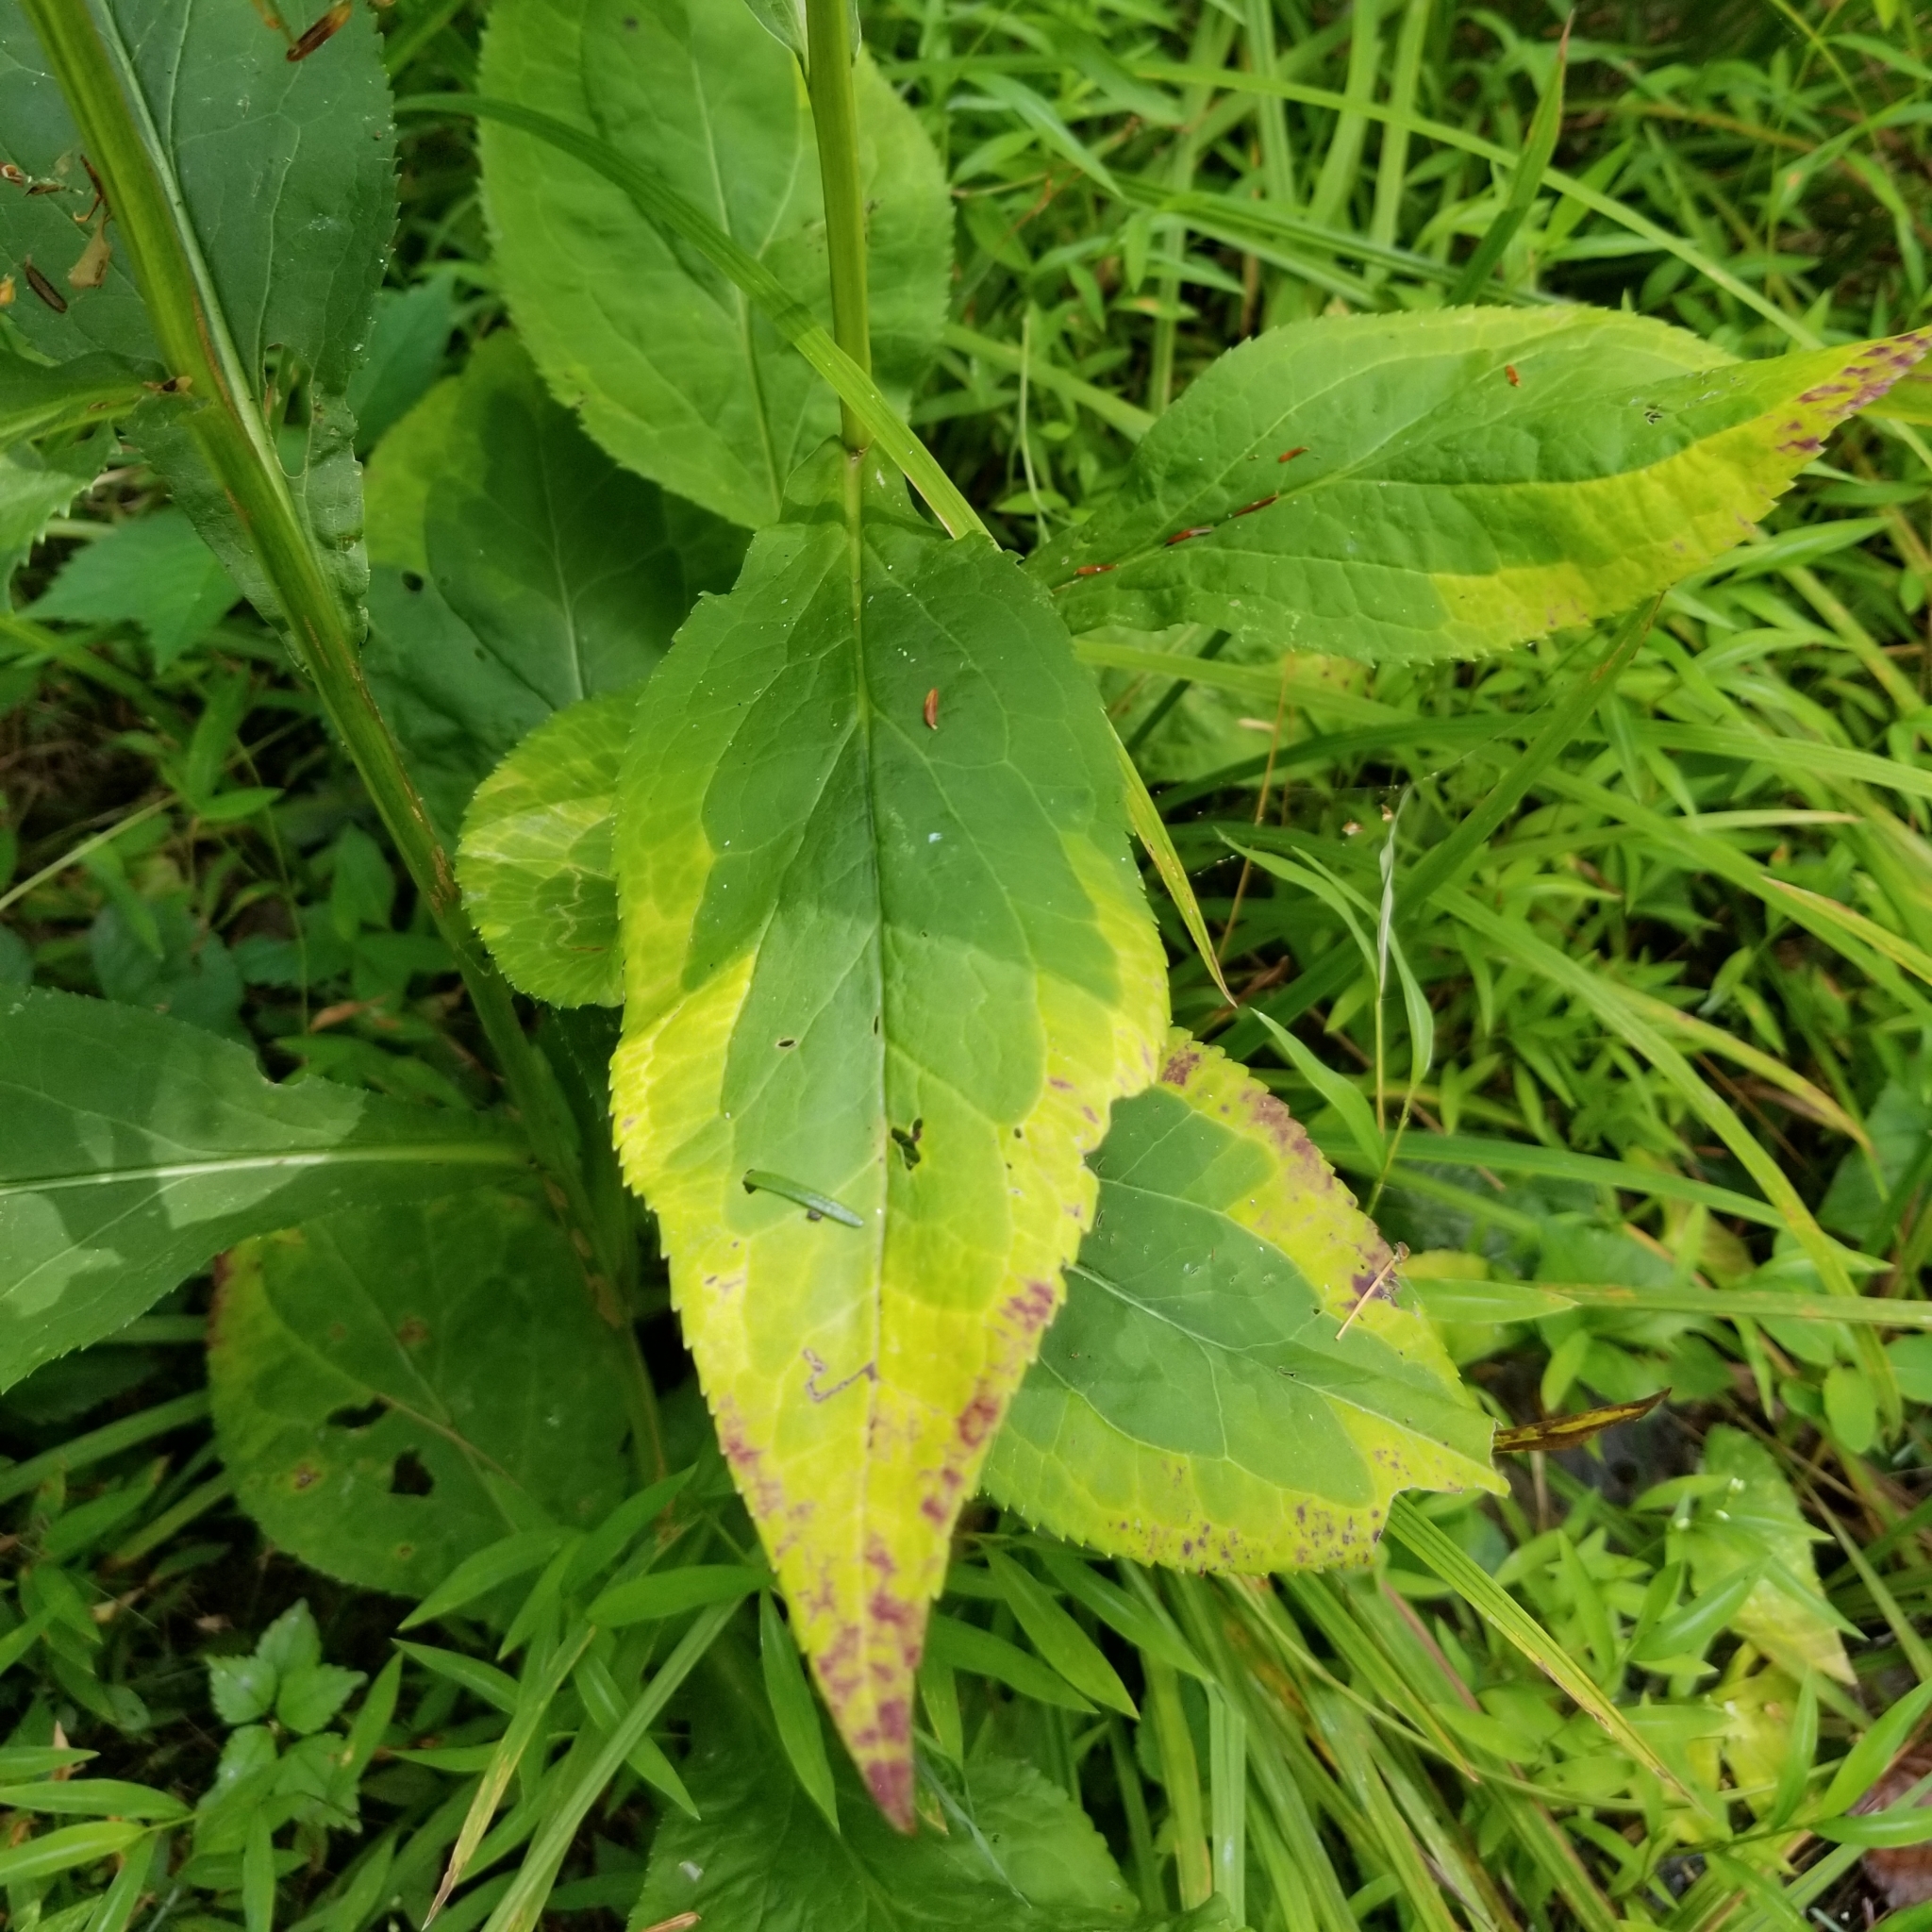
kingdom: Plantae
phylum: Tracheophyta
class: Magnoliopsida
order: Asterales
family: Asteraceae
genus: Solidago
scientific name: Solidago patula
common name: Rough-leaf goldenrod
